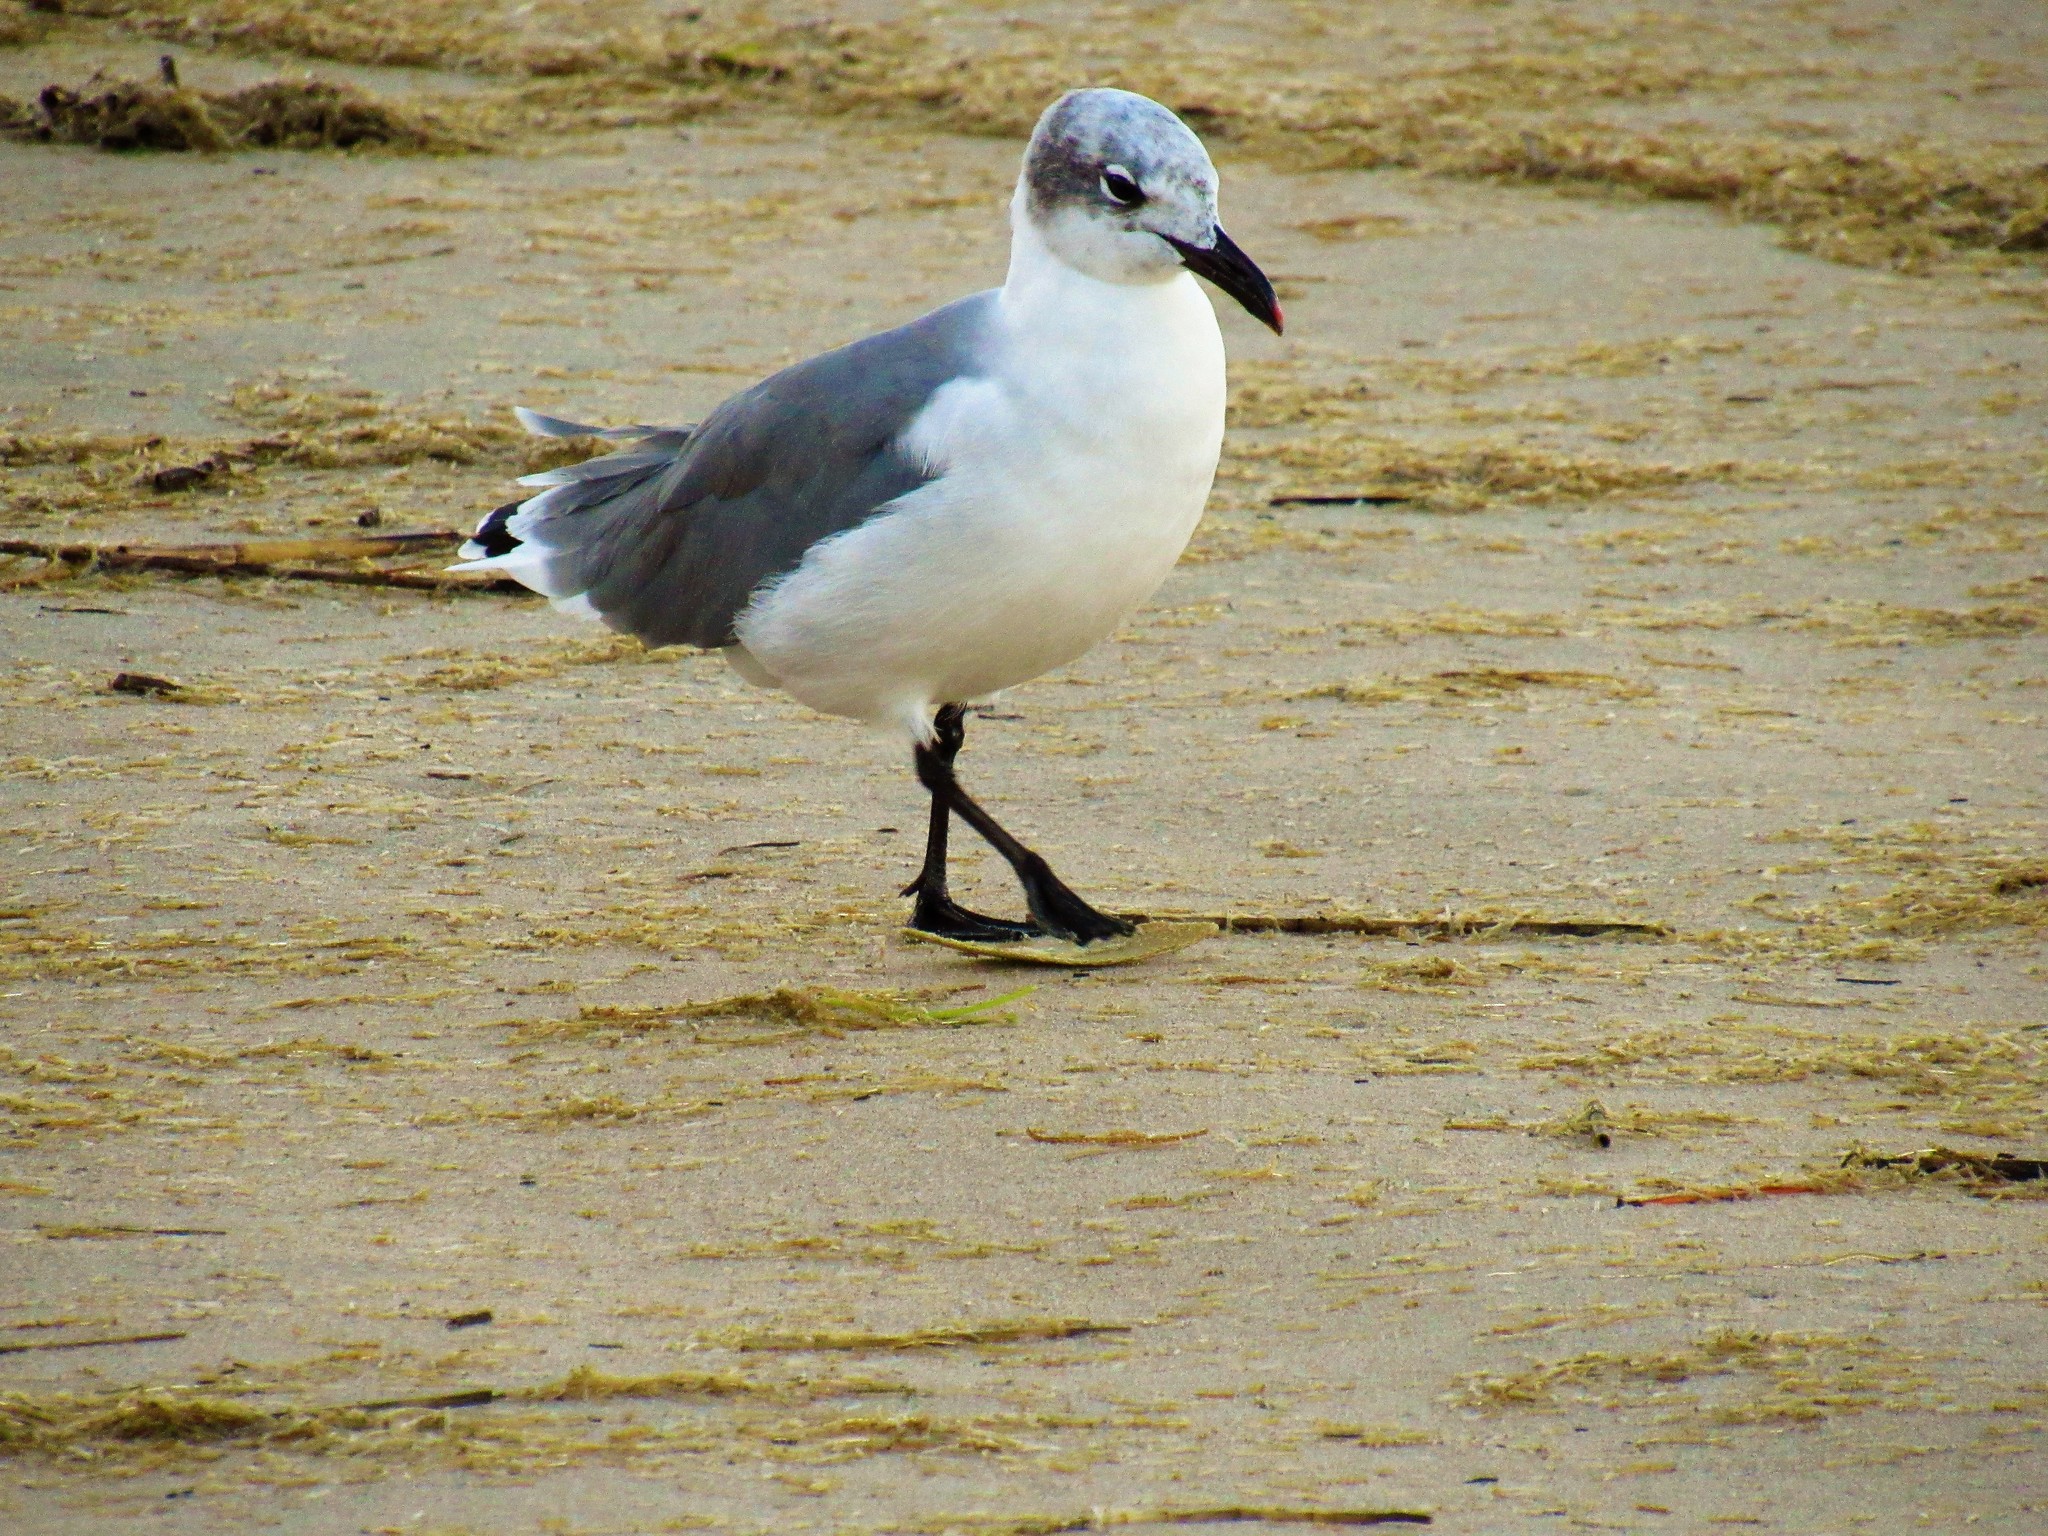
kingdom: Animalia
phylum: Chordata
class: Aves
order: Charadriiformes
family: Laridae
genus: Leucophaeus
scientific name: Leucophaeus atricilla
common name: Laughing gull
